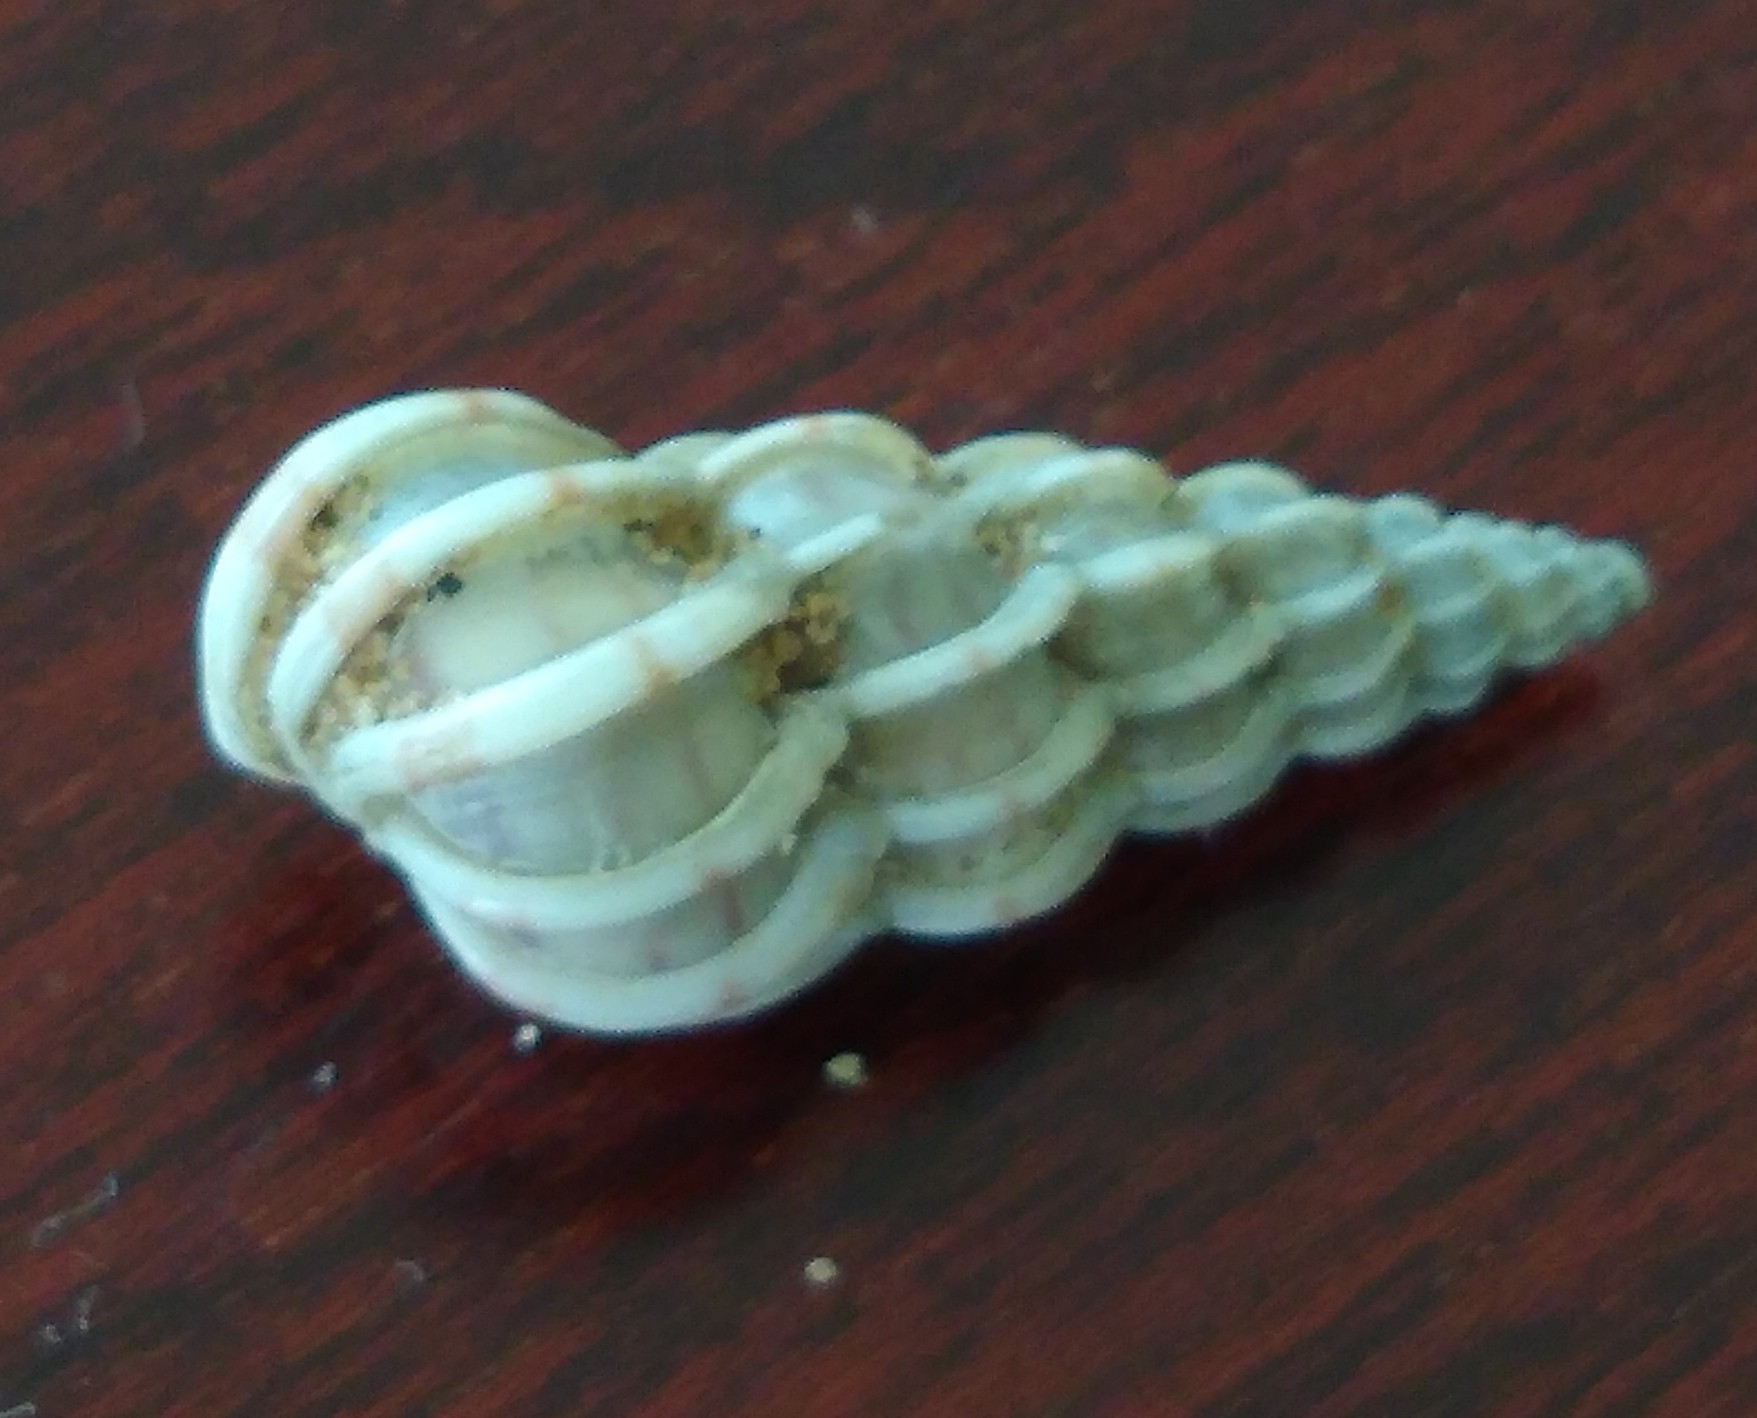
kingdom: Animalia
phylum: Mollusca
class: Gastropoda
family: Epitoniidae
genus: Epitonium
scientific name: Epitonium clathrus
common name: Common wentletrap
